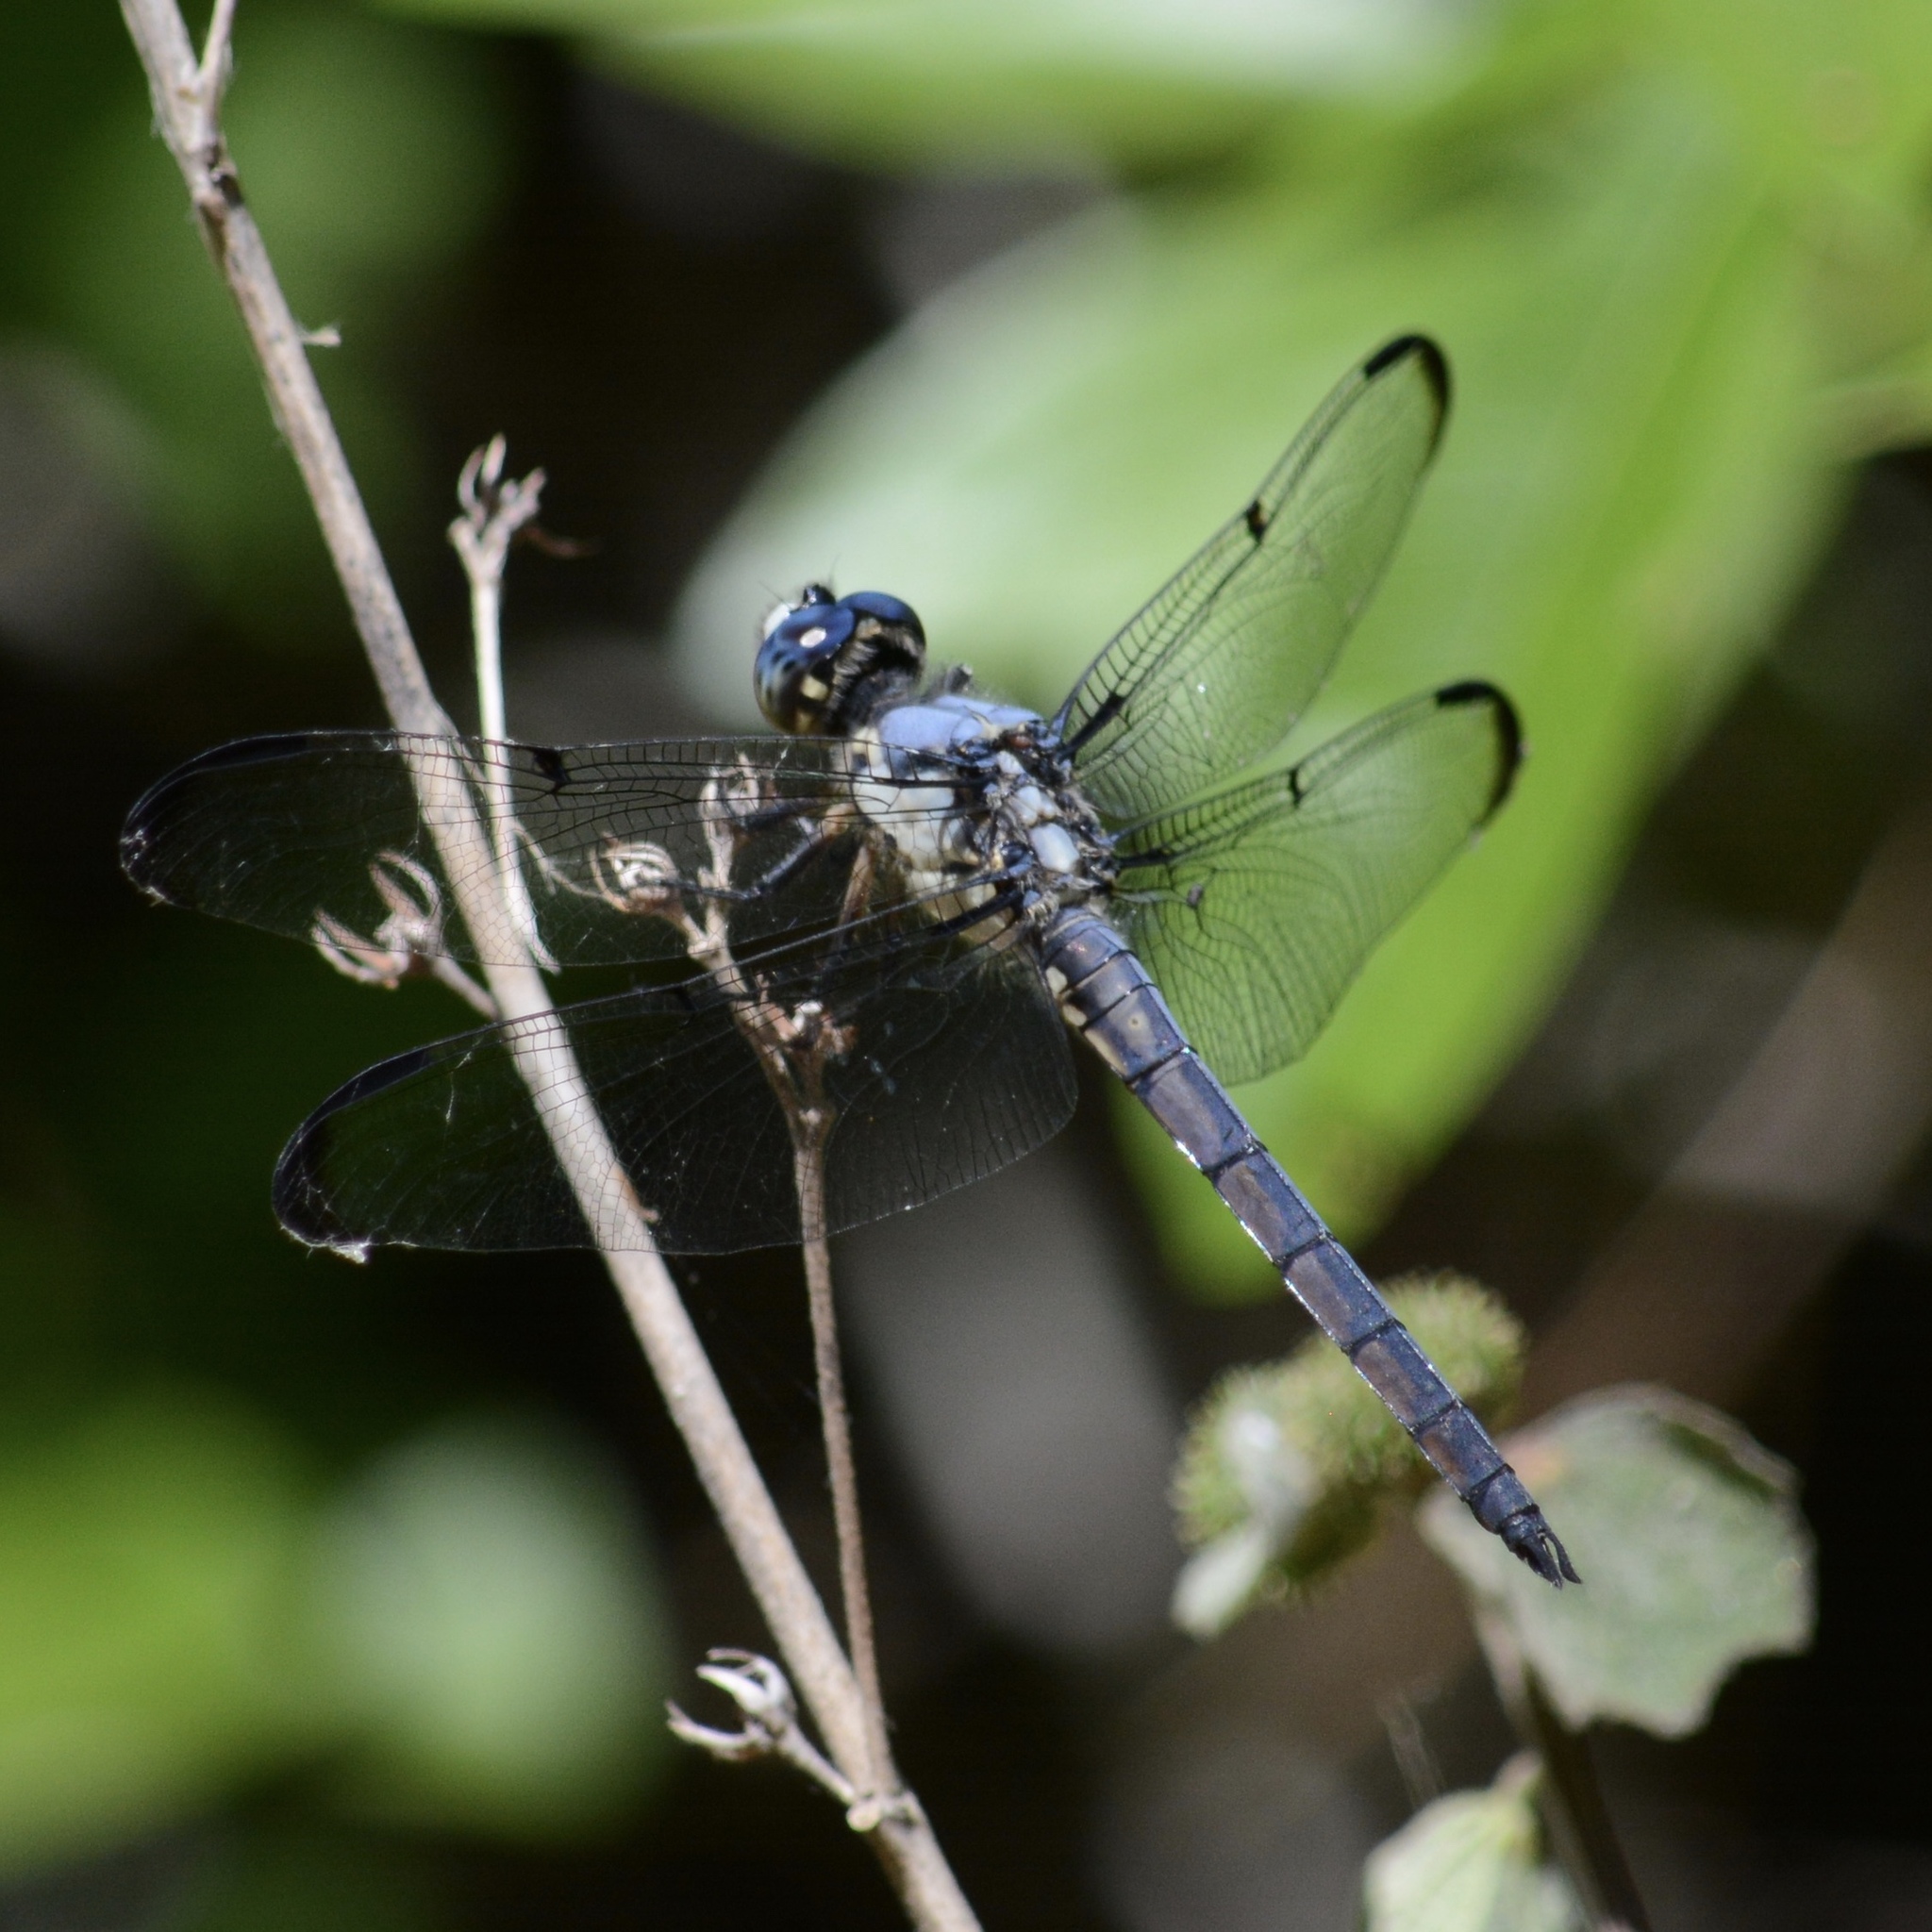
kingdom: Animalia
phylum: Arthropoda
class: Insecta
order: Odonata
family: Libellulidae
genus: Libellula
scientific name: Libellula vibrans
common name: Great blue skimmer
